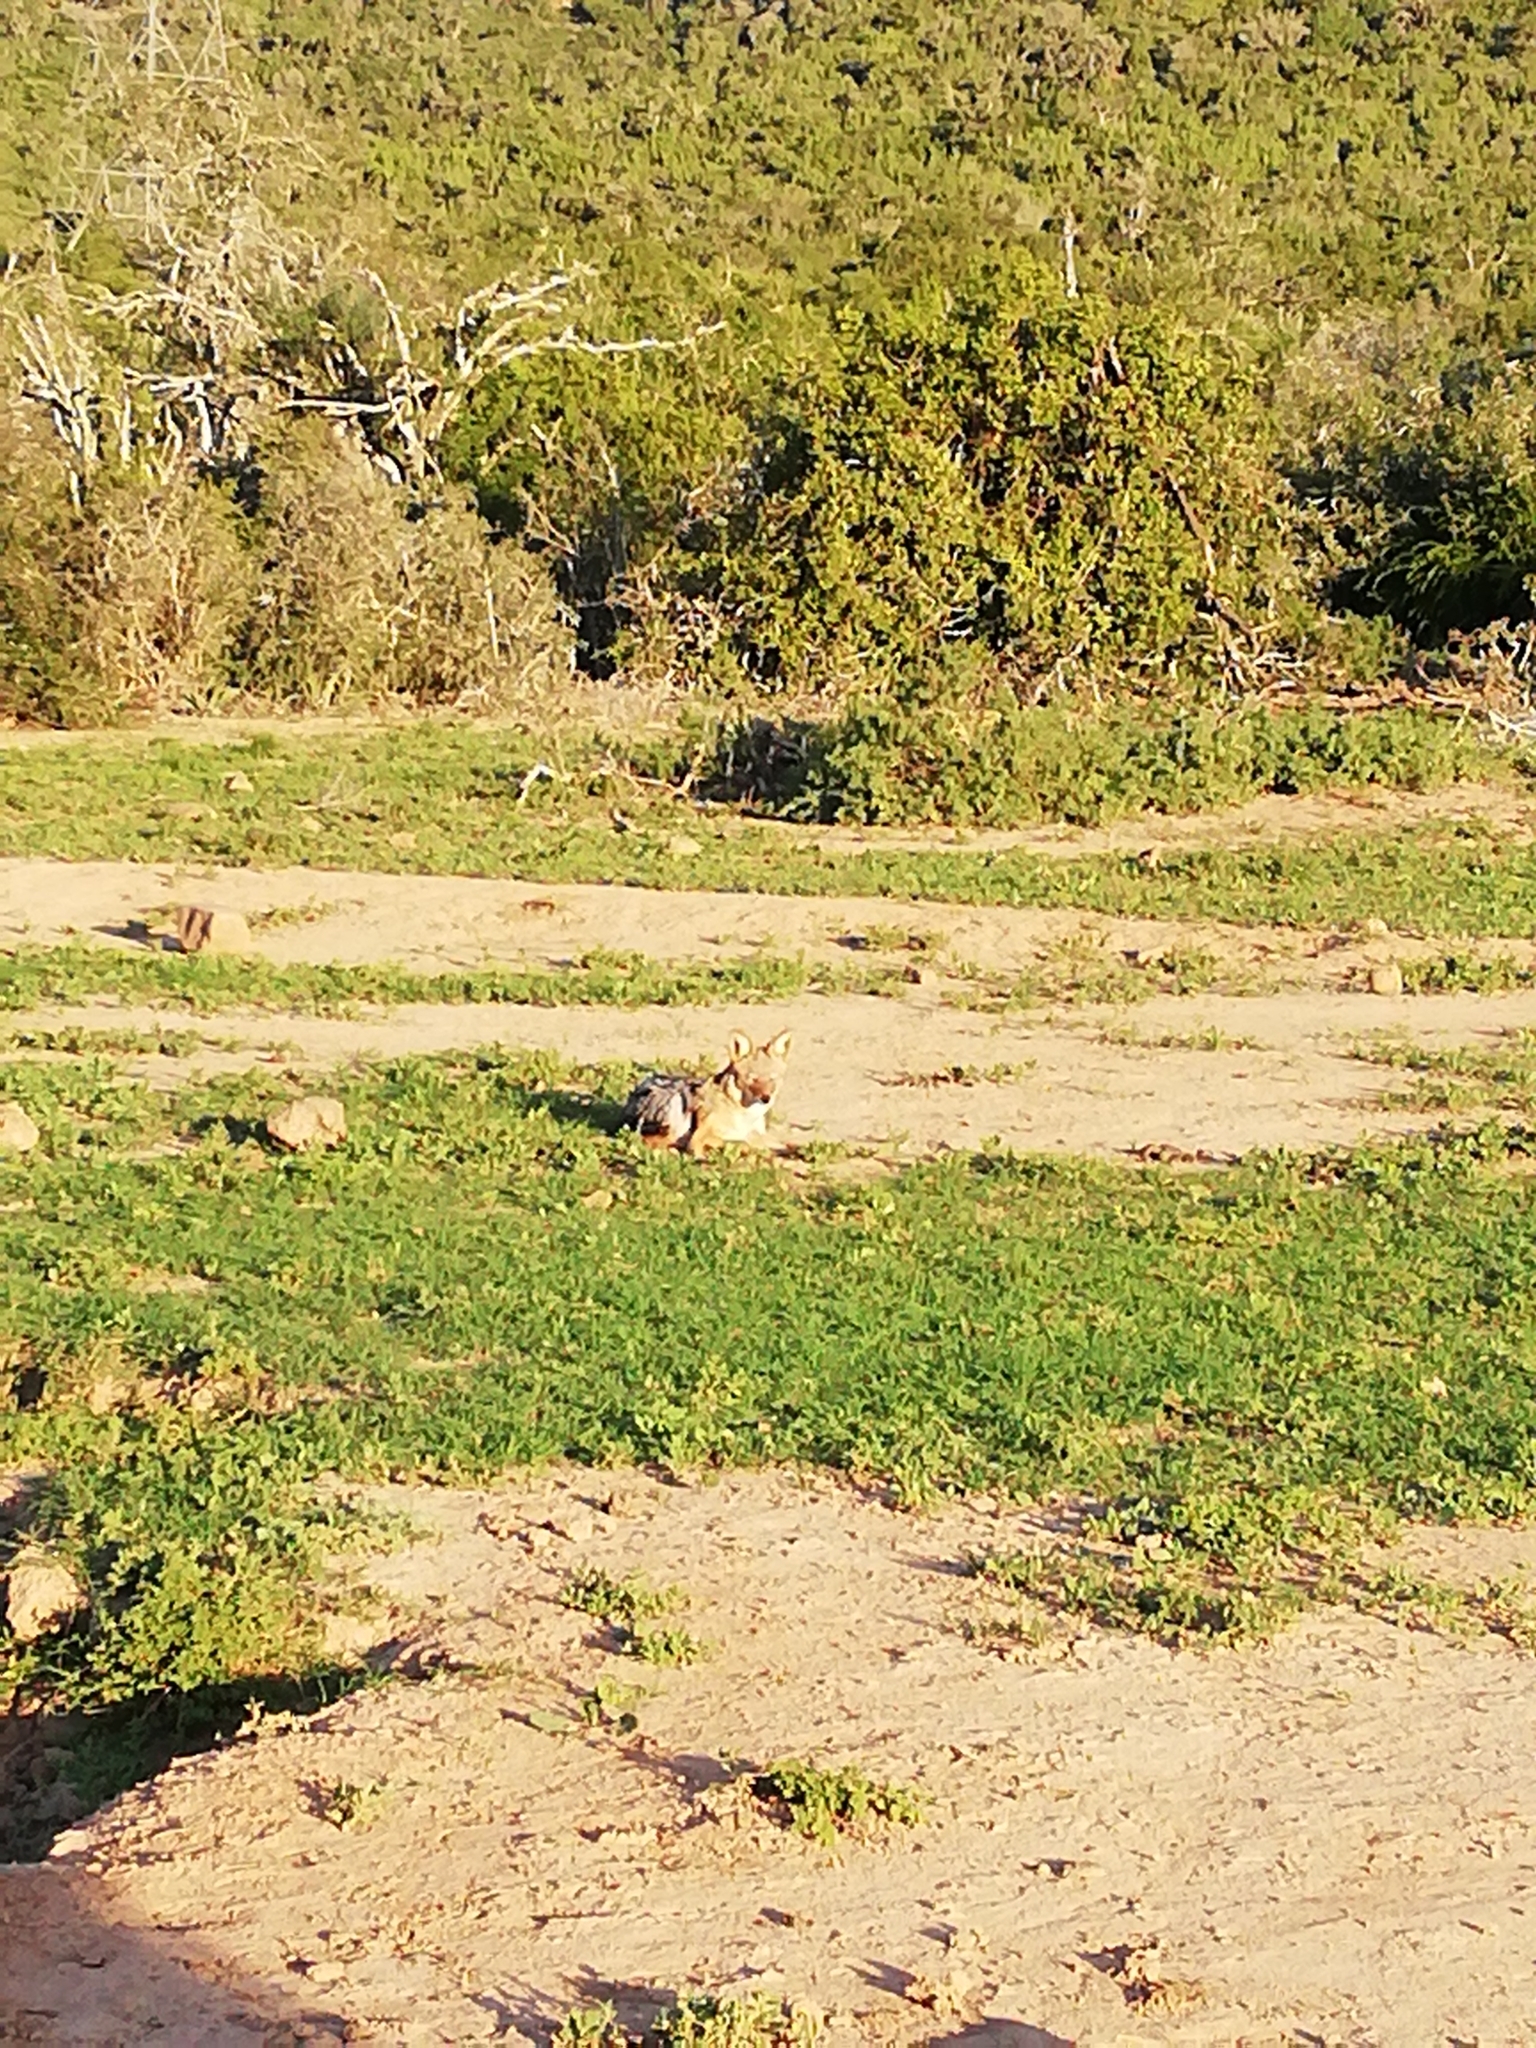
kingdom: Animalia
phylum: Chordata
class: Mammalia
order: Carnivora
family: Canidae
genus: Lupulella
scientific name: Lupulella
